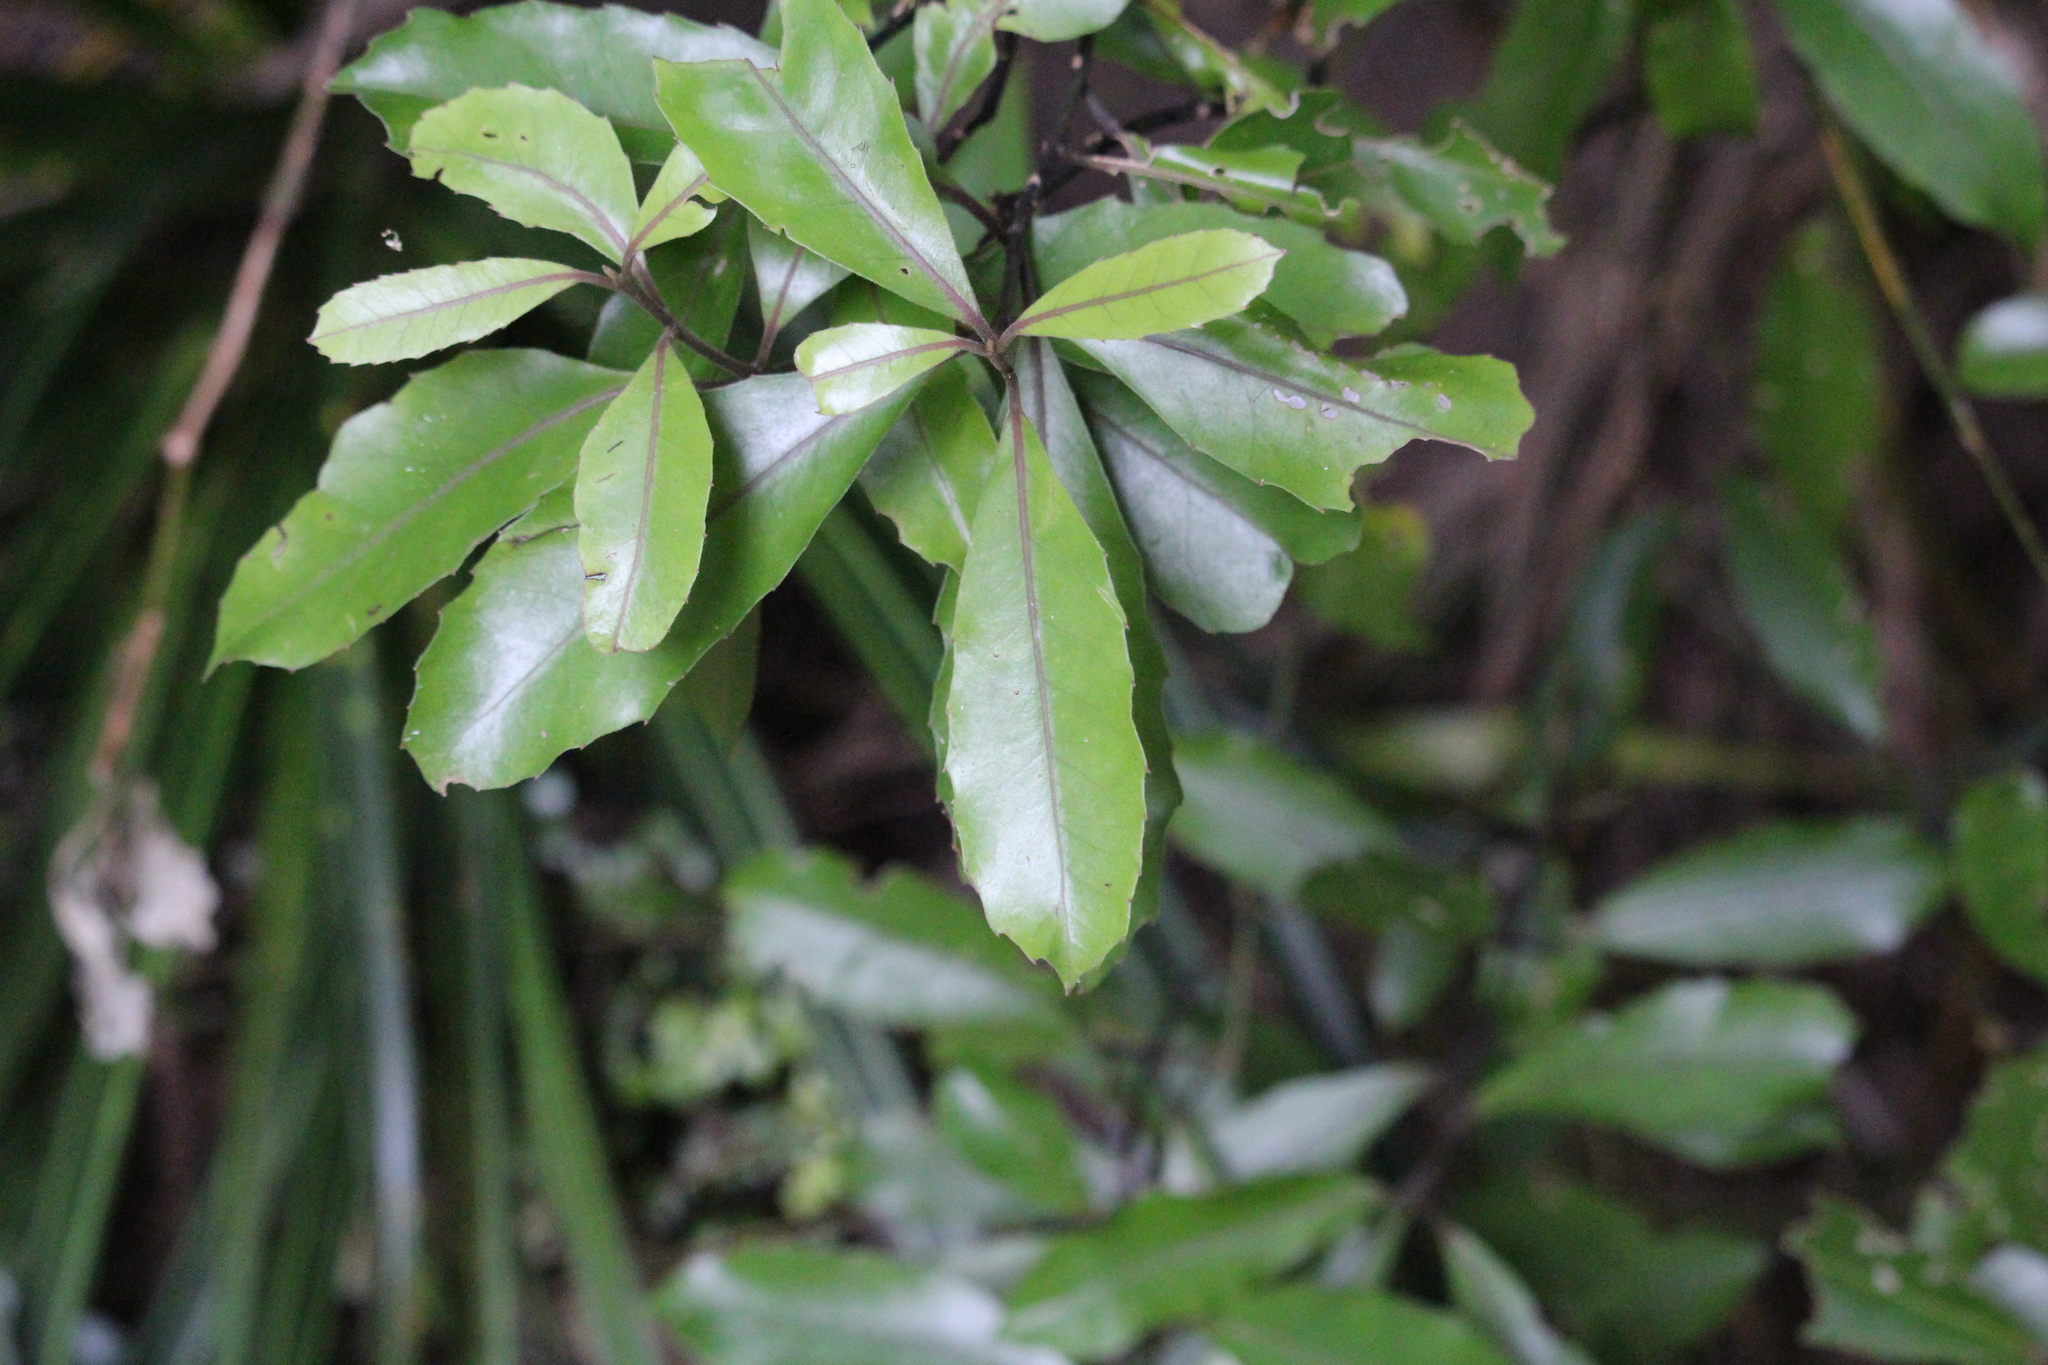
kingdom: Plantae
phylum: Tracheophyta
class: Magnoliopsida
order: Laurales
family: Monimiaceae
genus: Hedycarya
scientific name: Hedycarya arborea
